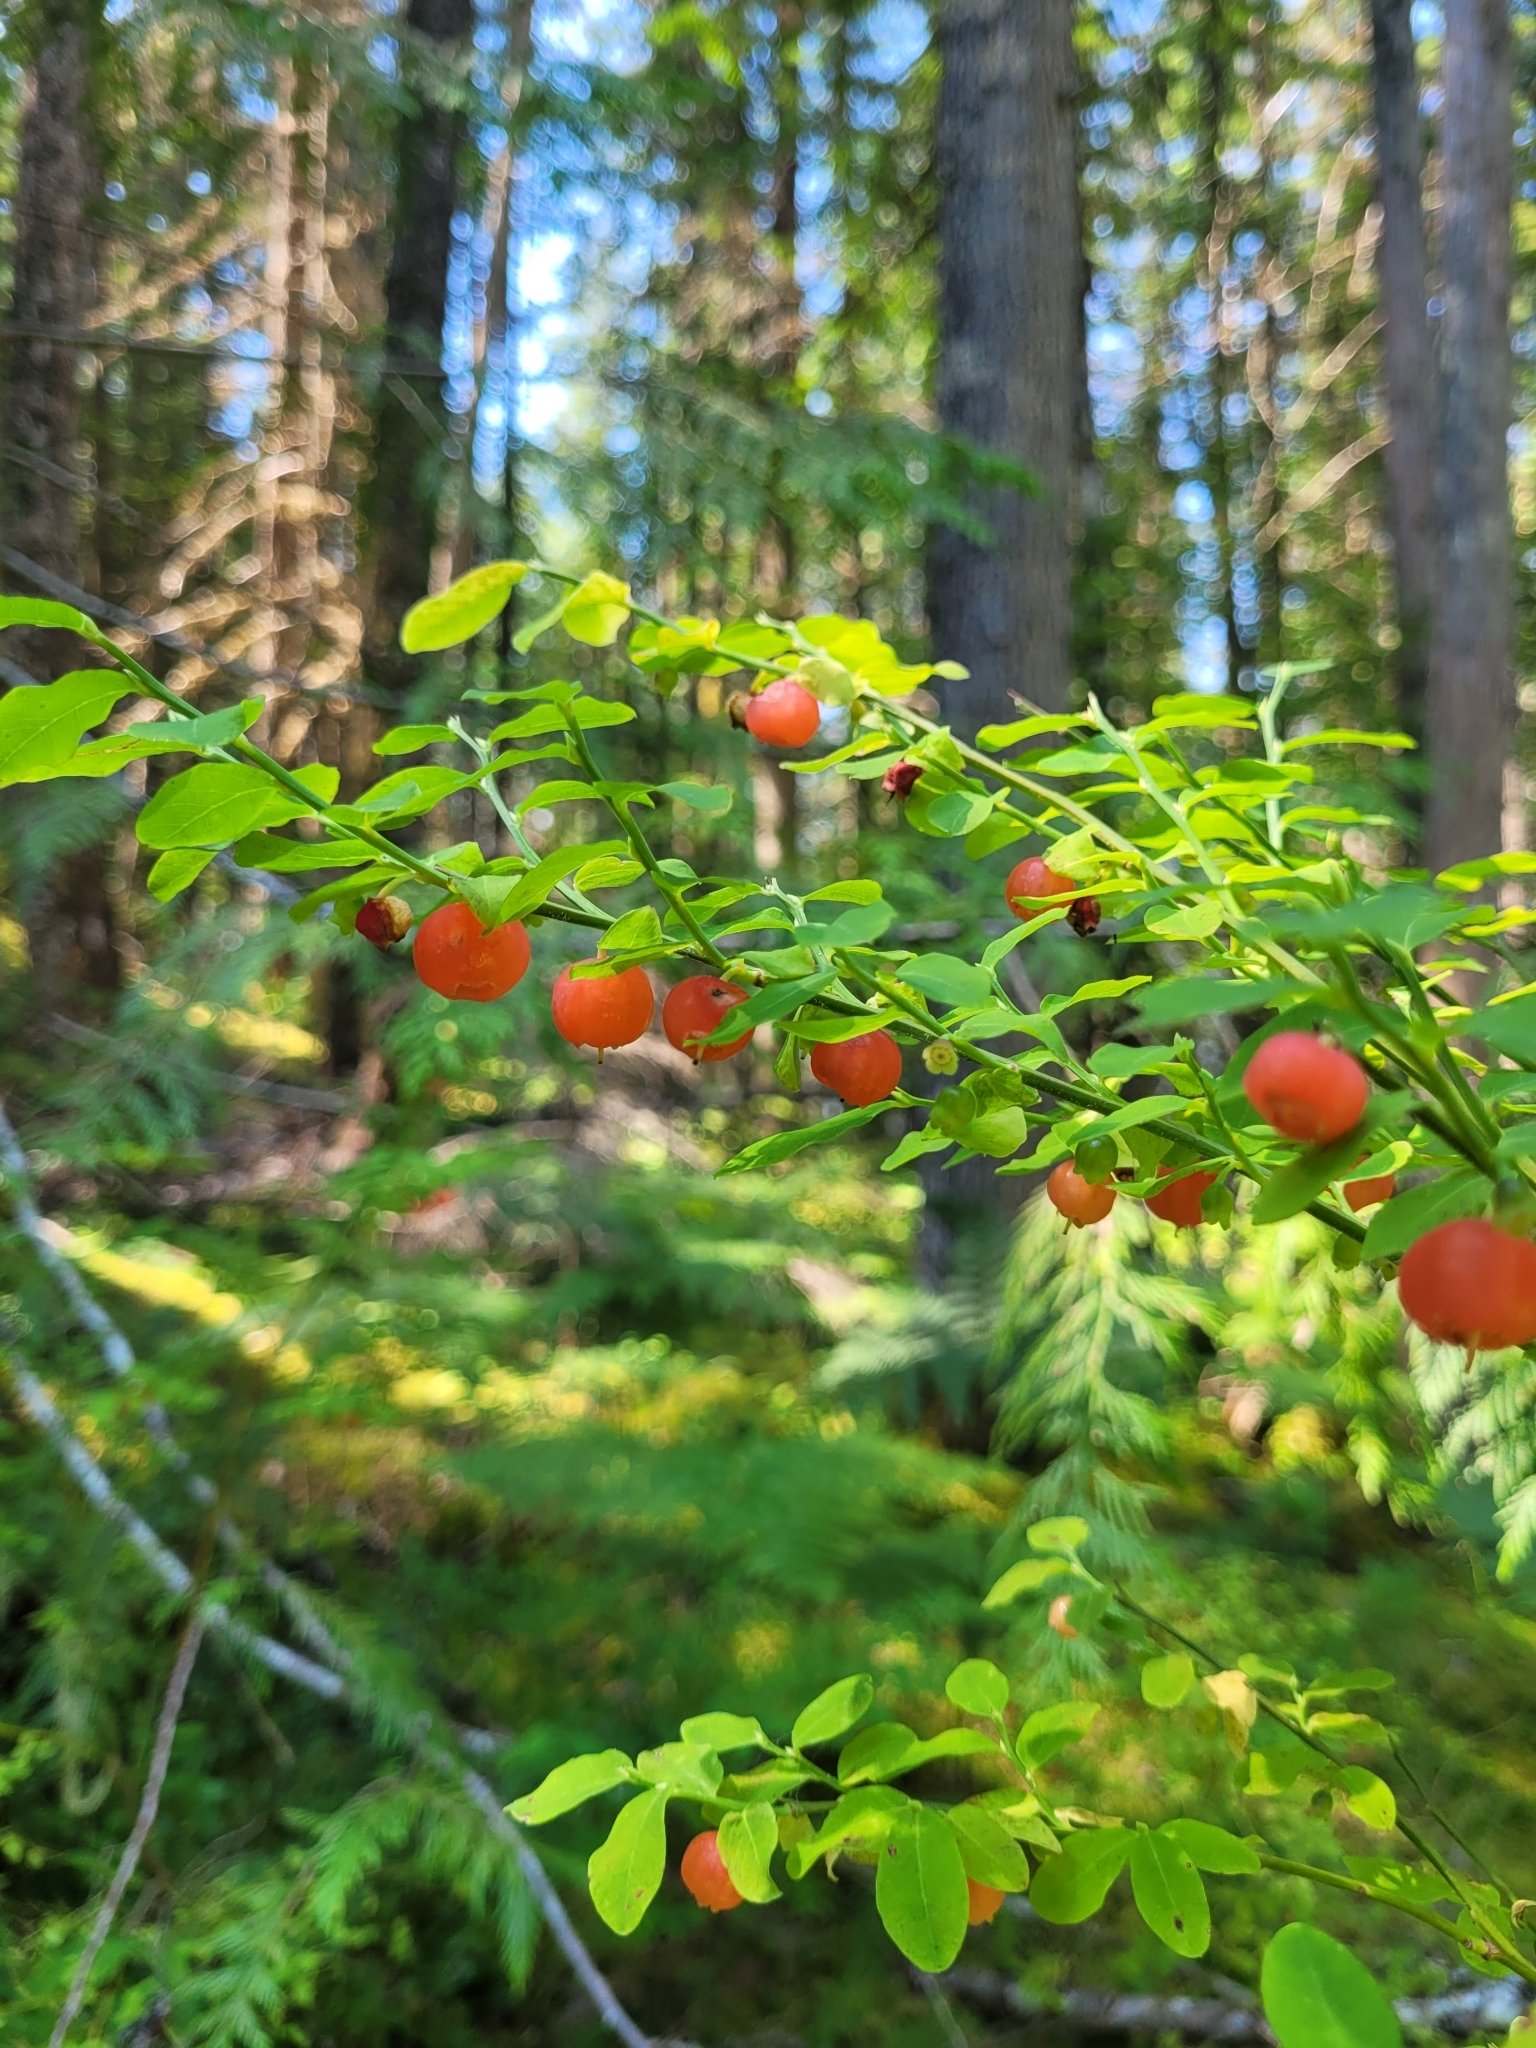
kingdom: Plantae
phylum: Tracheophyta
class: Magnoliopsida
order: Ericales
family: Ericaceae
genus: Vaccinium
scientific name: Vaccinium parvifolium
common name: Red-huckleberry
